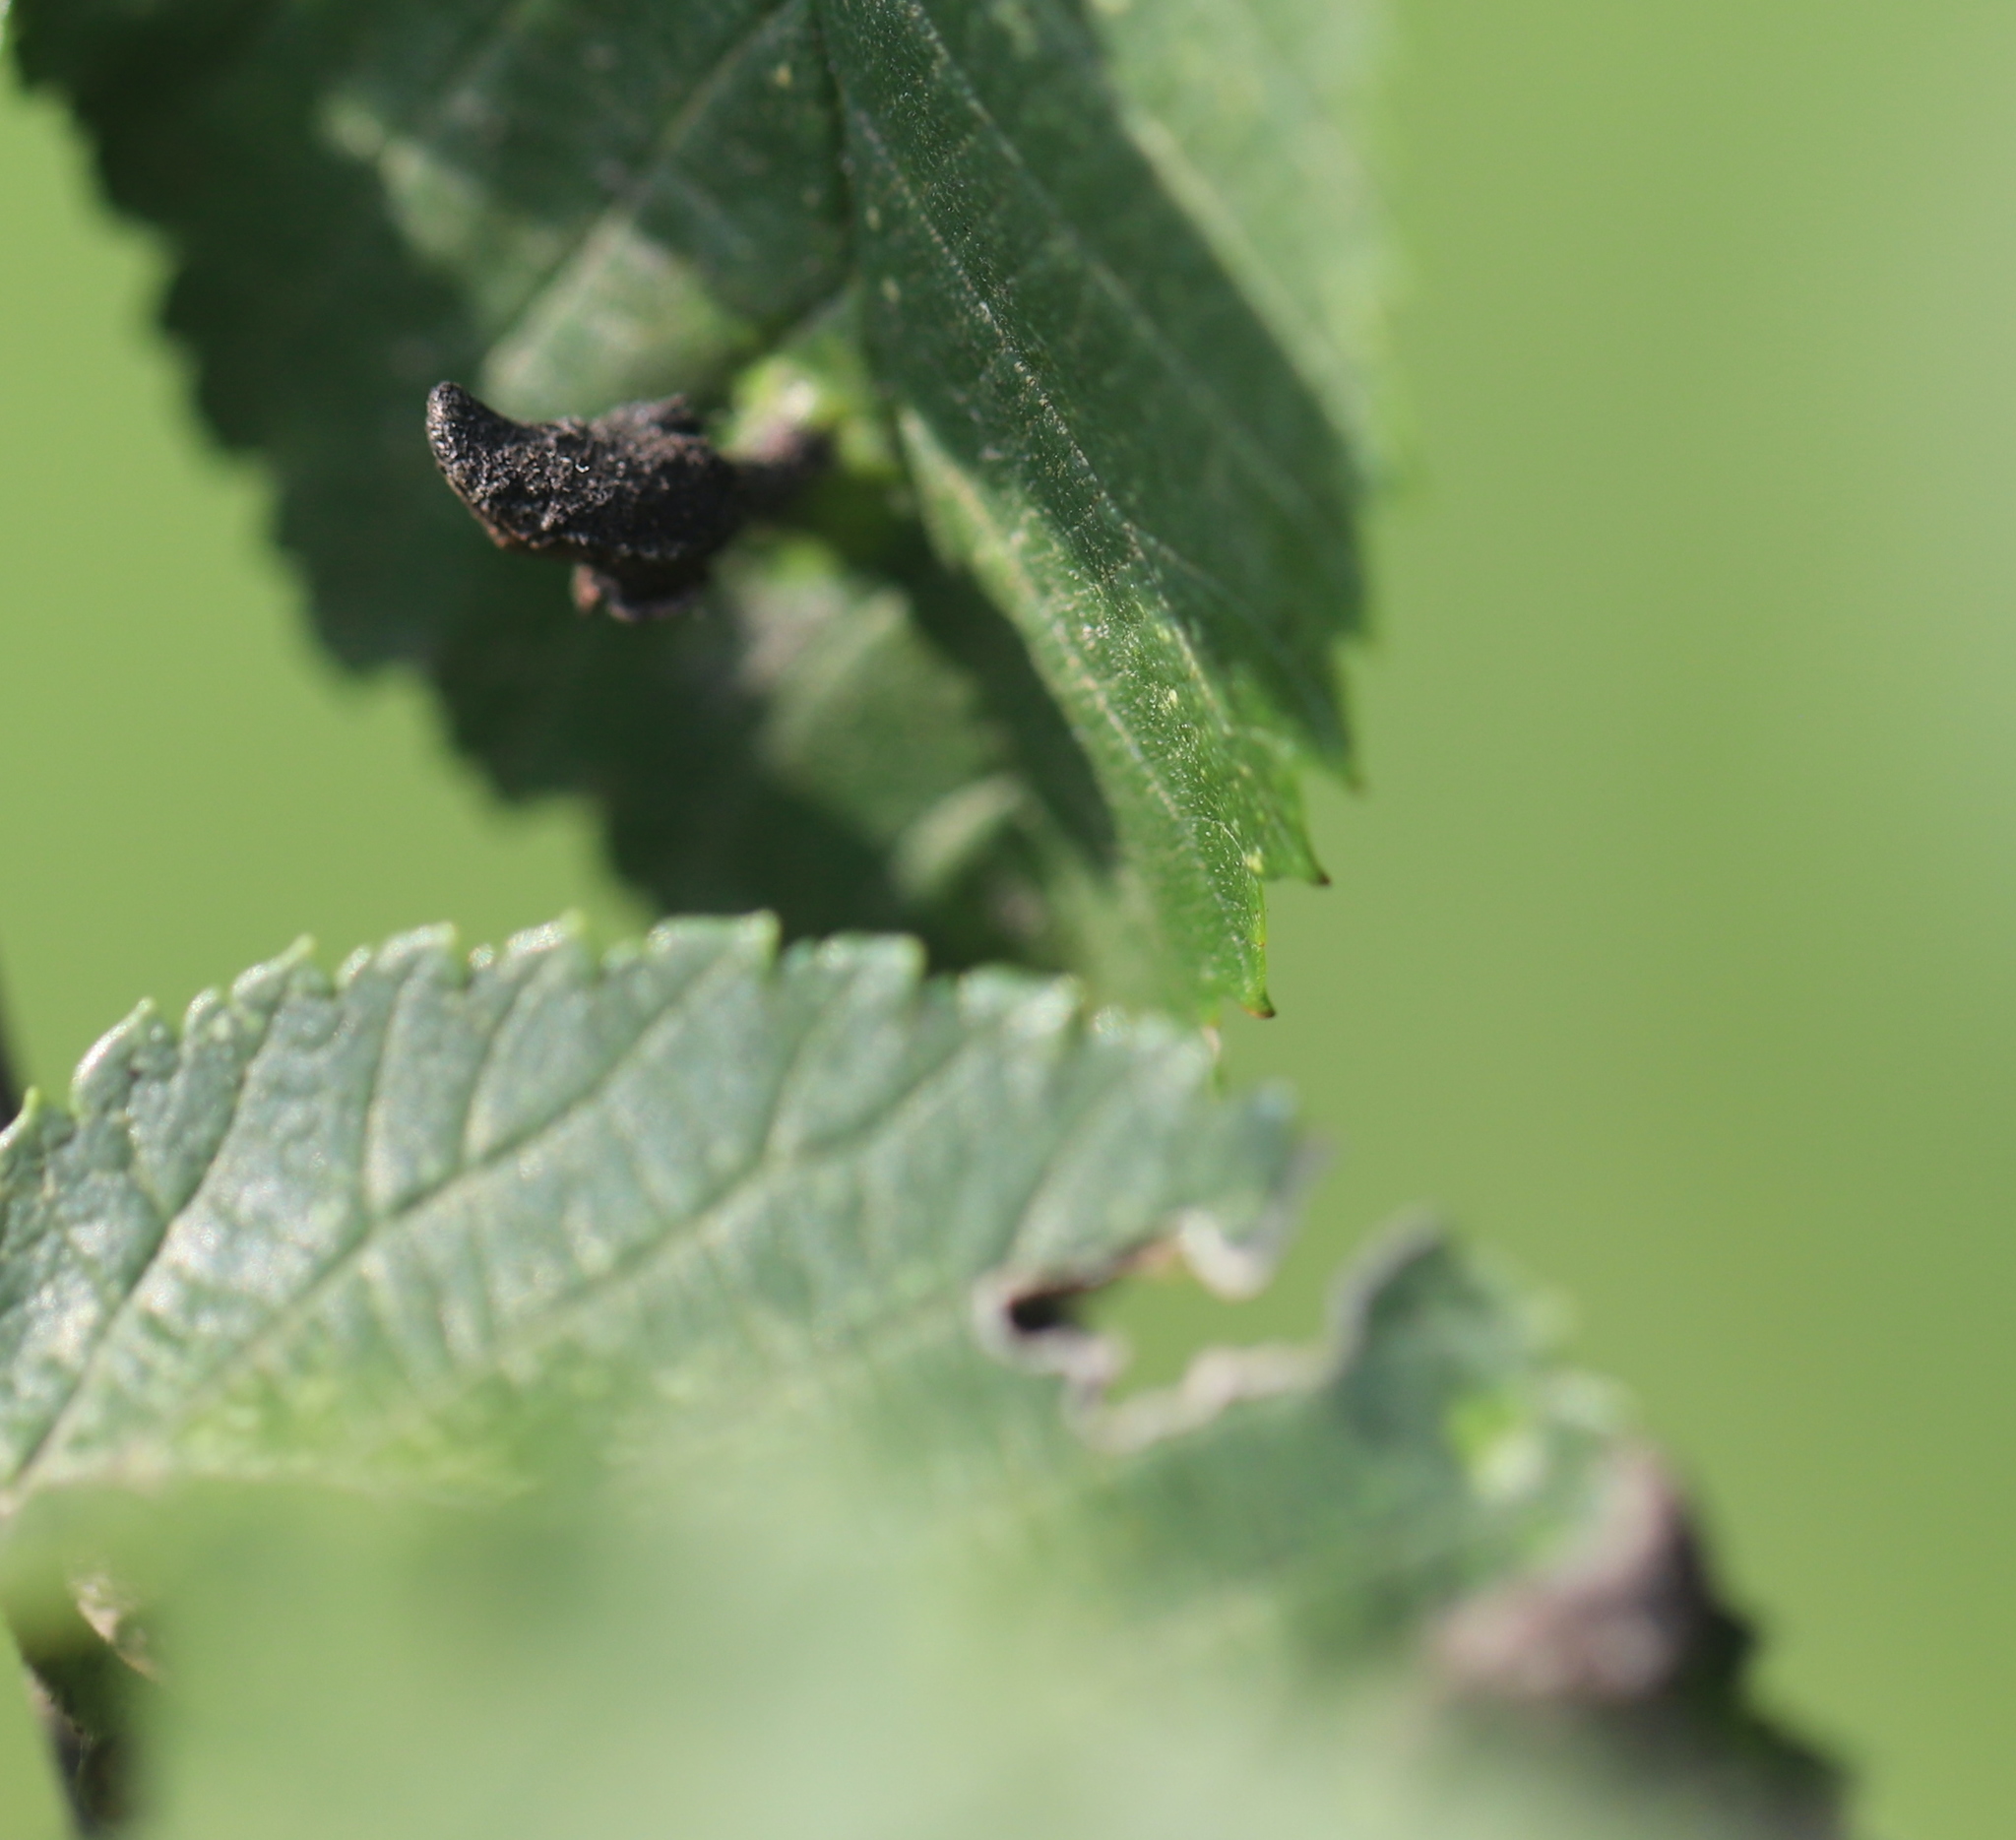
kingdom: Animalia
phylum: Arthropoda
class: Insecta
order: Hemiptera
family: Aphididae
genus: Tetraneura
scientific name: Tetraneura nigriabdominalis
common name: Aphid
